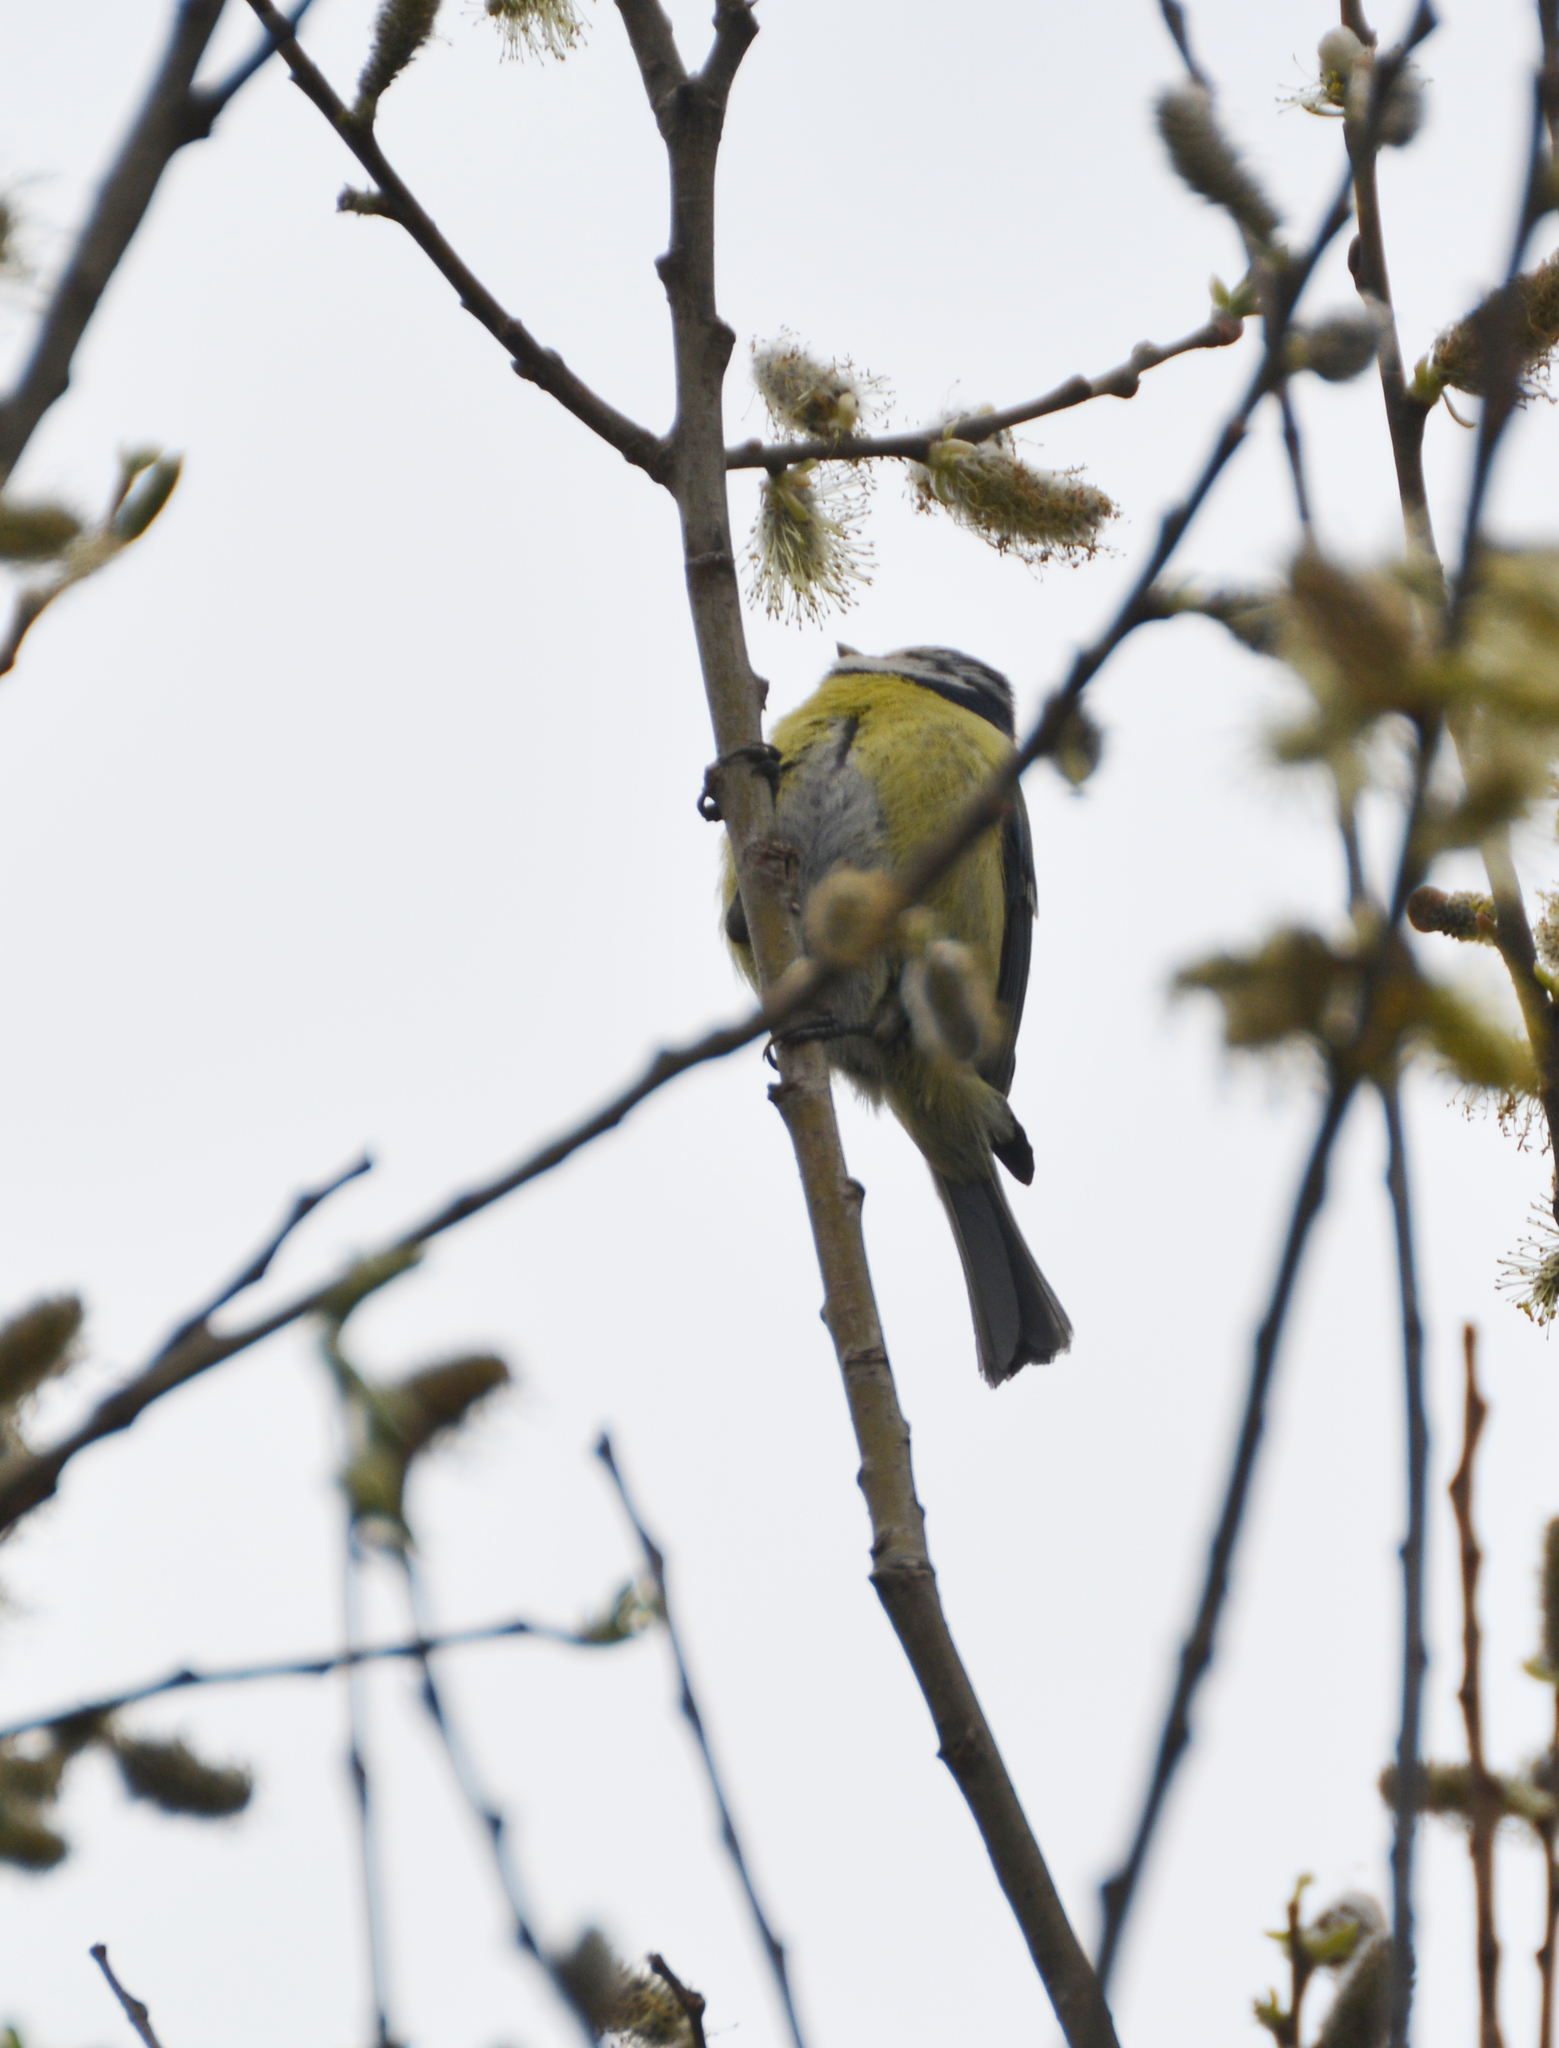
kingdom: Animalia
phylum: Chordata
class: Aves
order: Passeriformes
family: Paridae
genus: Cyanistes
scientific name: Cyanistes caeruleus
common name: Eurasian blue tit
